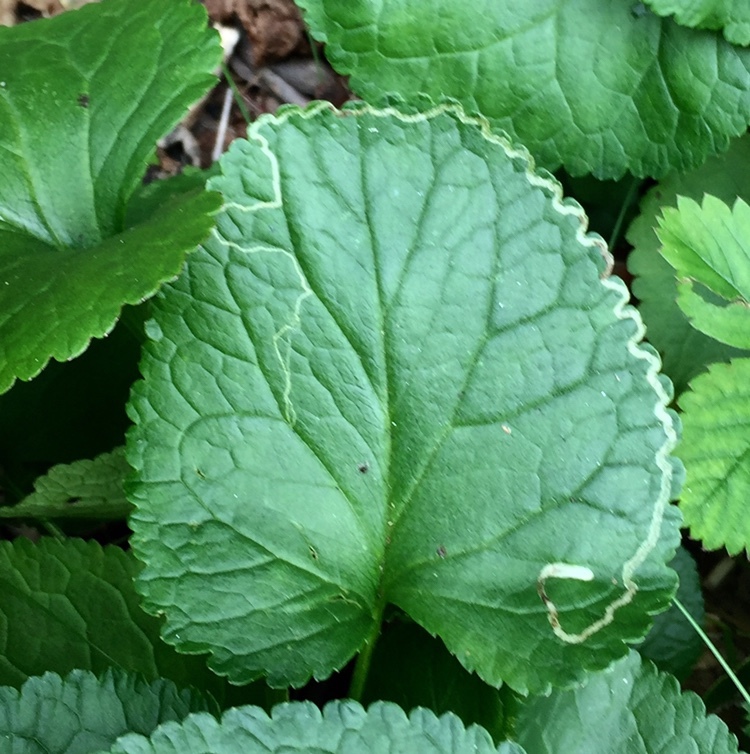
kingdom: Animalia
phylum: Arthropoda
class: Insecta
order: Lepidoptera
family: Gracillariidae
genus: Phyllocnistis
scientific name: Phyllocnistis insignis
